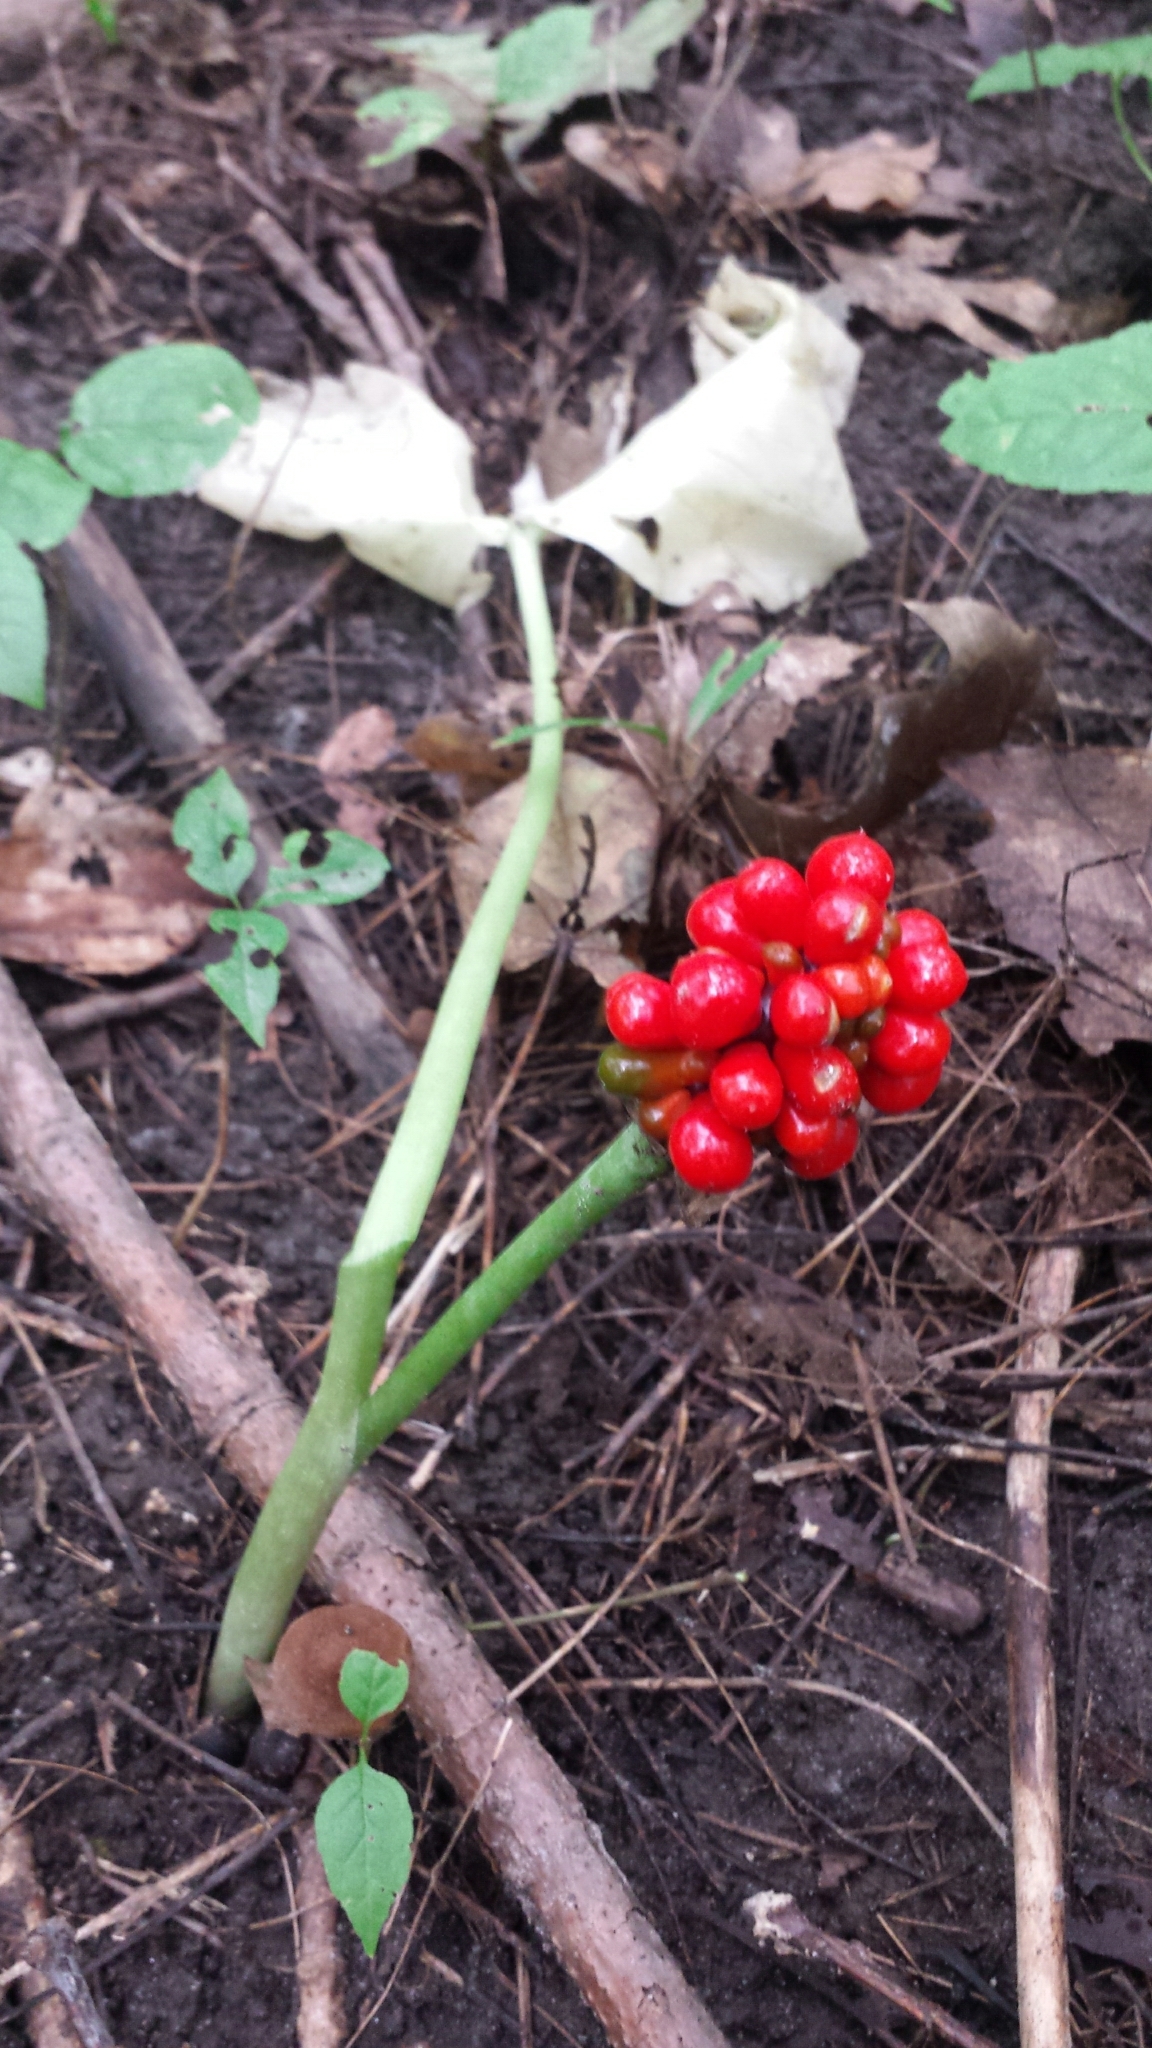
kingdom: Plantae
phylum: Tracheophyta
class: Liliopsida
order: Alismatales
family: Araceae
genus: Arisaema
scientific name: Arisaema
